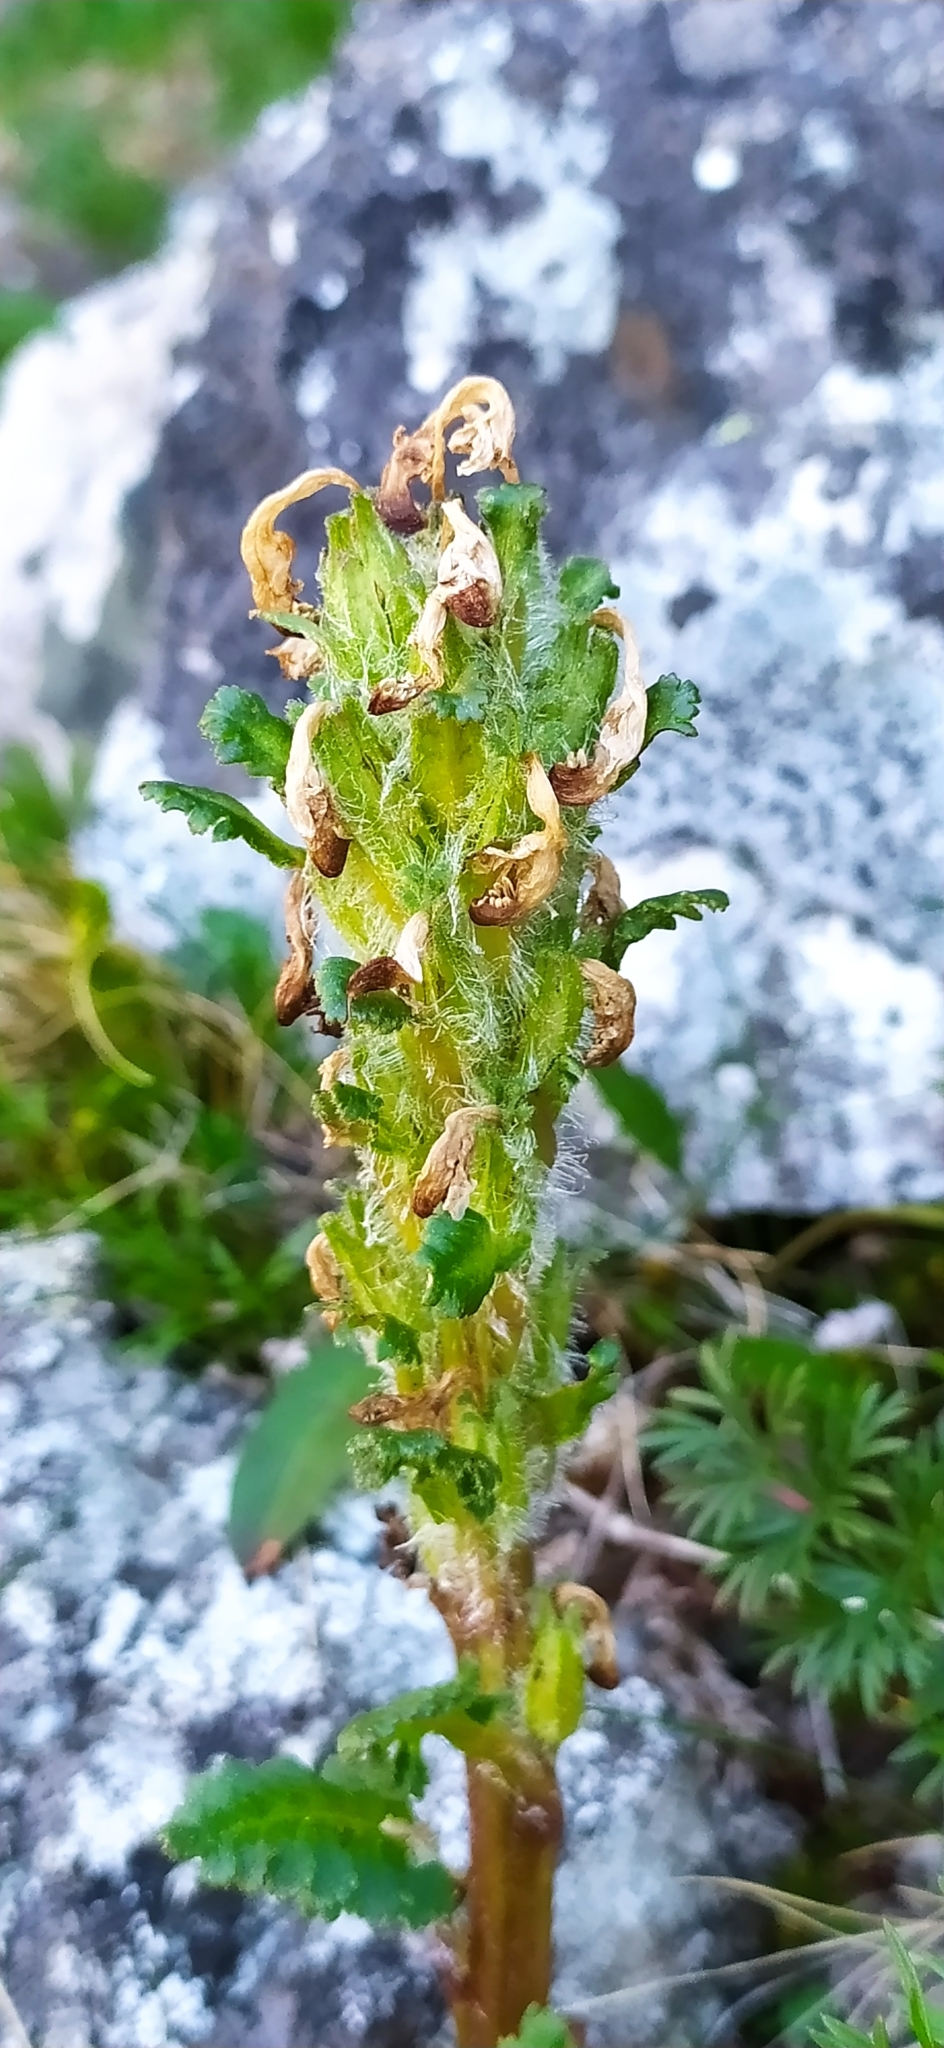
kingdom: Plantae
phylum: Tracheophyta
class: Magnoliopsida
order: Lamiales
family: Orobanchaceae
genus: Pedicularis
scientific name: Pedicularis oederi
